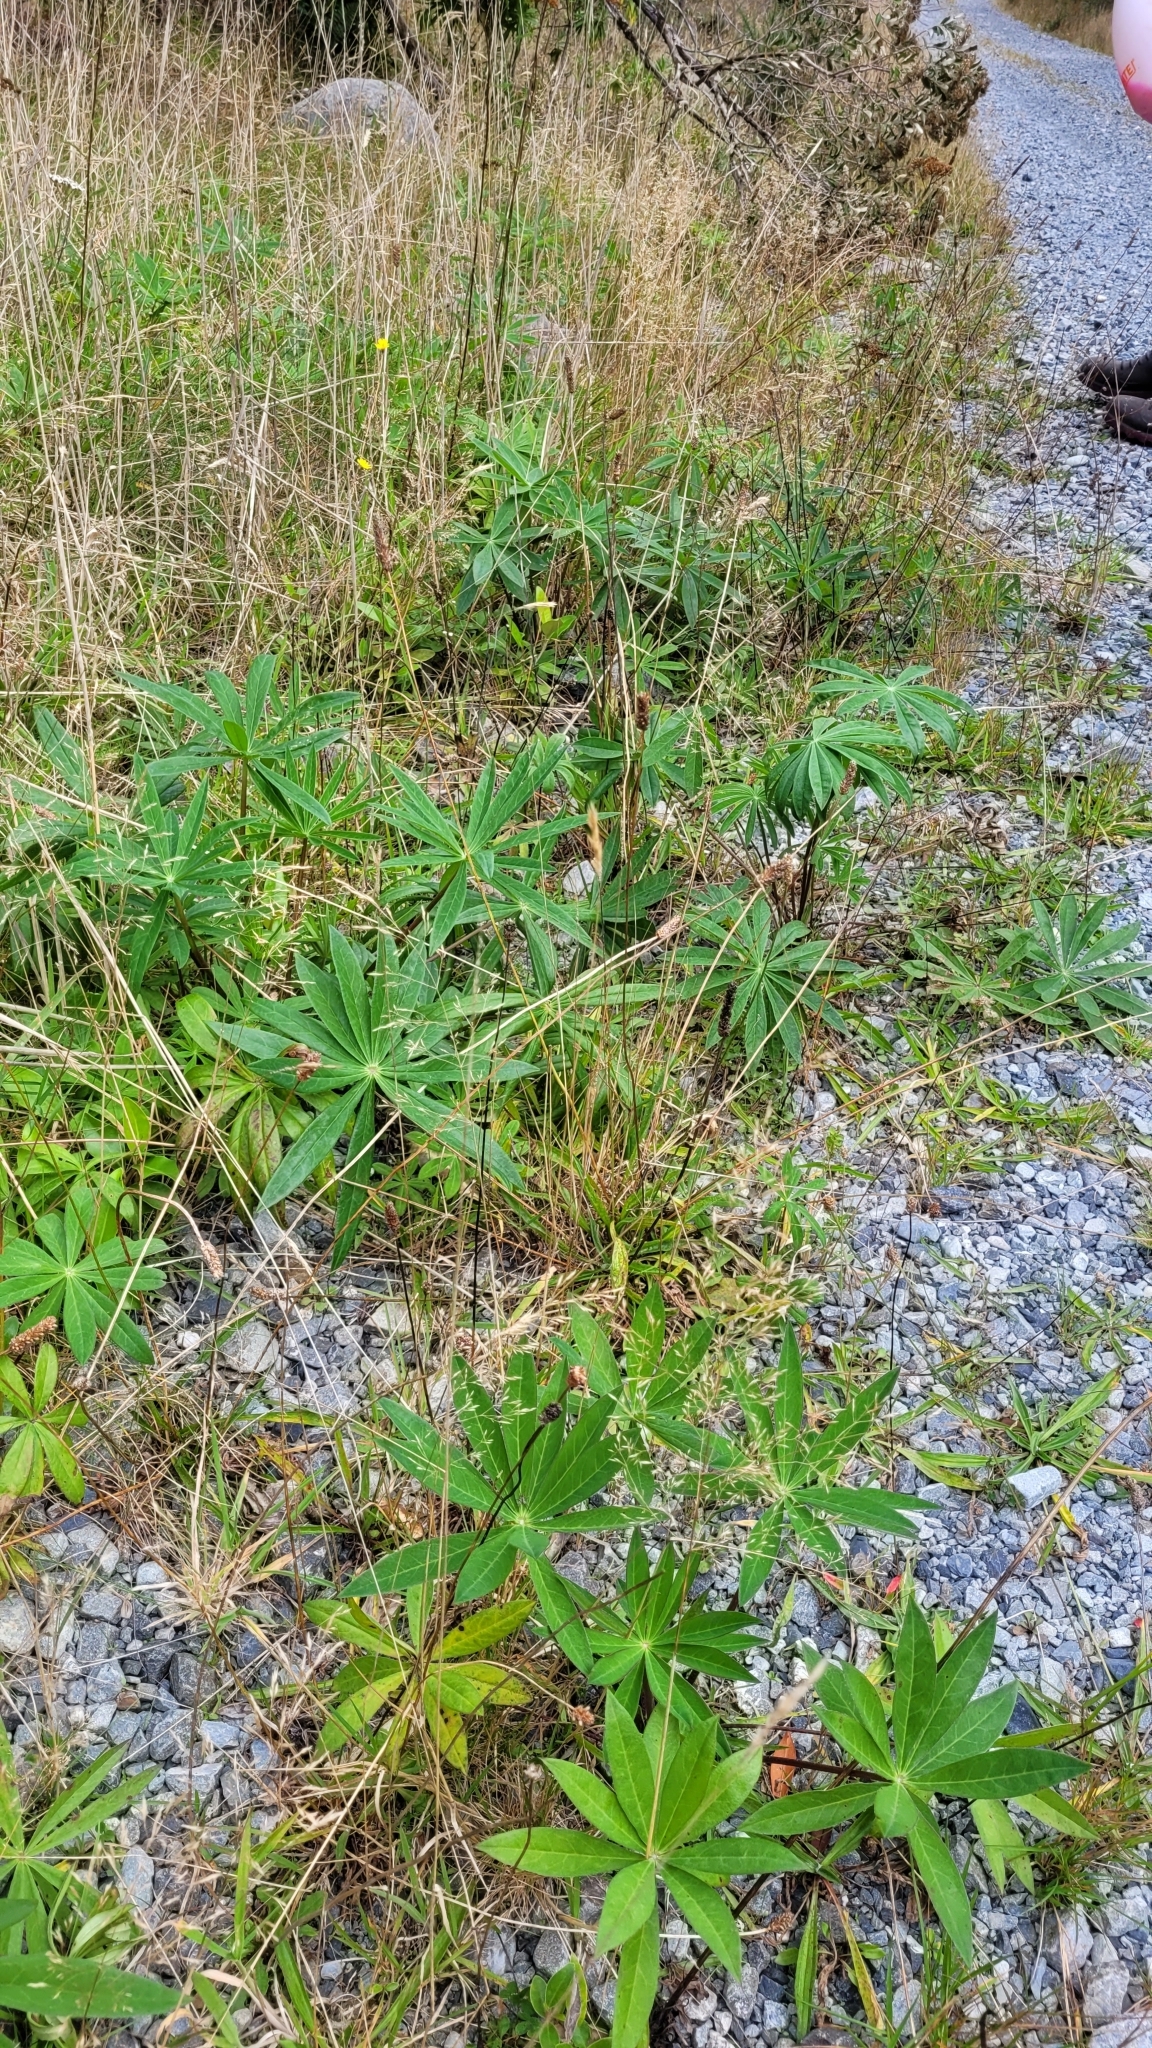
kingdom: Plantae
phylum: Tracheophyta
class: Magnoliopsida
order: Fabales
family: Fabaceae
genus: Lupinus
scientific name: Lupinus polyphyllus
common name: Garden lupin
